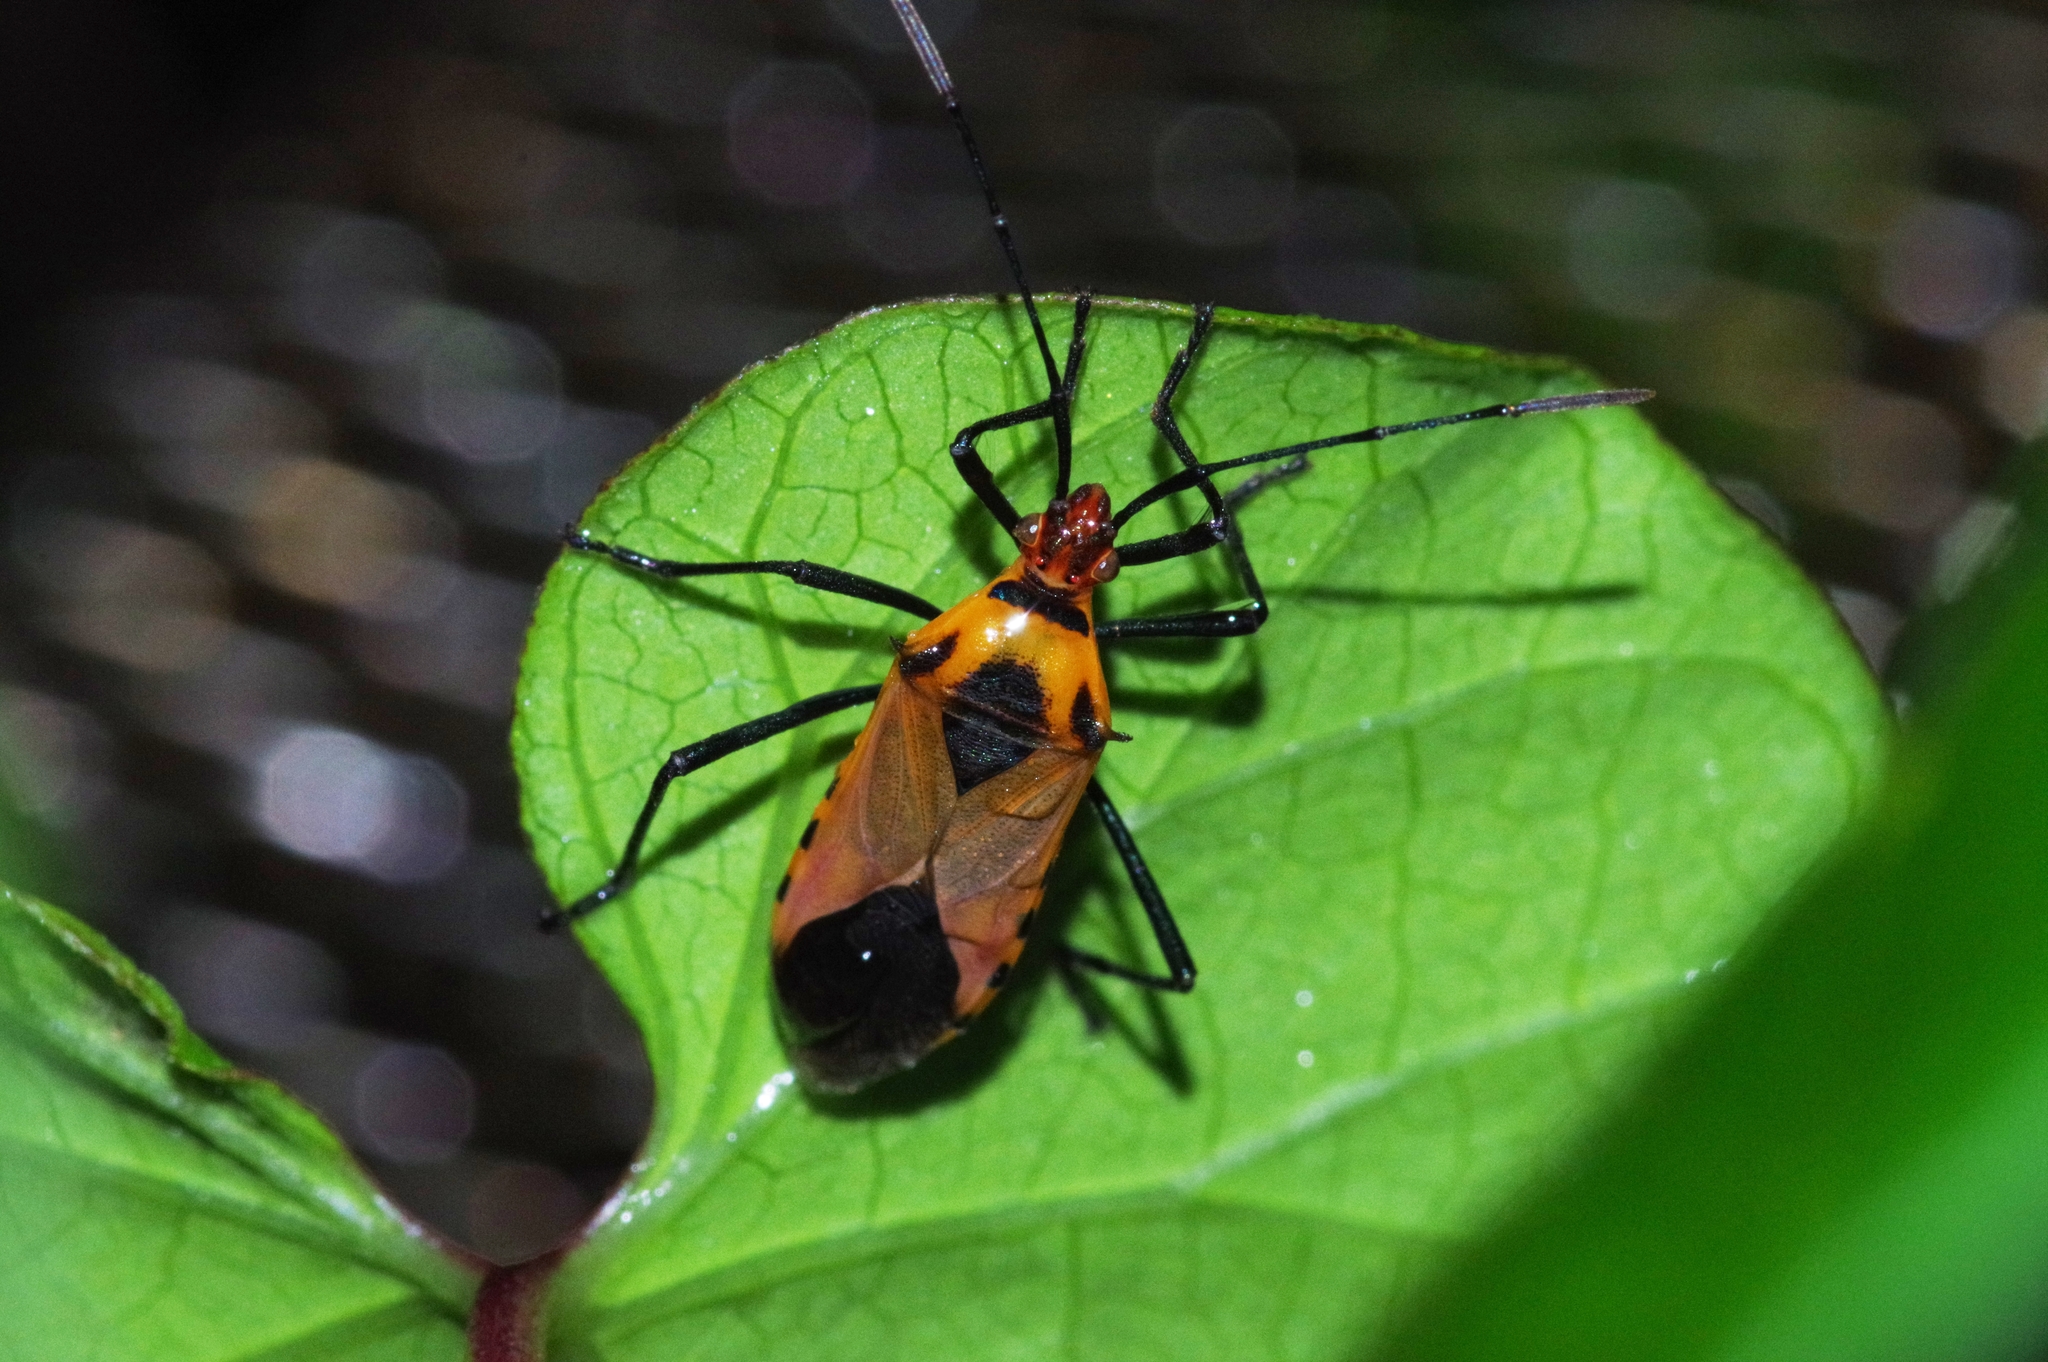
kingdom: Animalia
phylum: Arthropoda
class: Insecta
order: Hemiptera
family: Coreidae
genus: Plinachtus
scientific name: Plinachtus basalis
